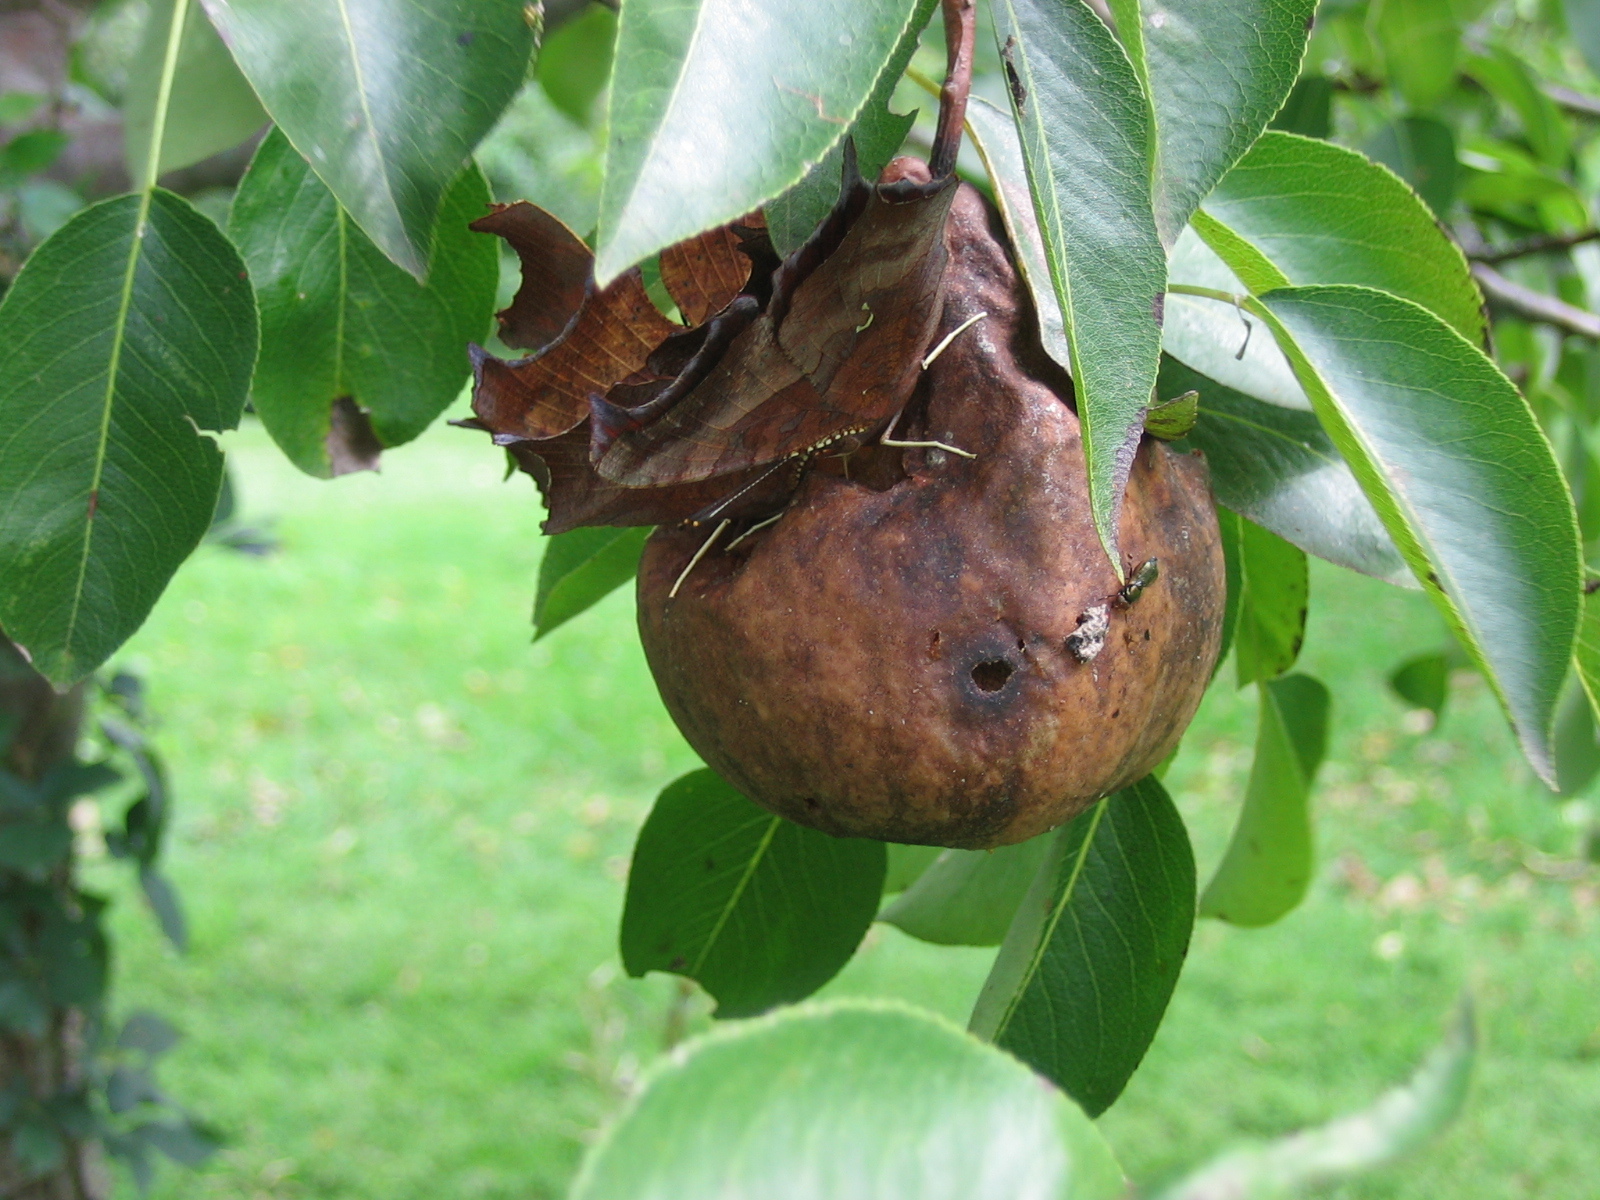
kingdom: Animalia
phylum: Arthropoda
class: Insecta
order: Lepidoptera
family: Nymphalidae
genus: Polygonia
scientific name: Polygonia interrogationis
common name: Question mark
